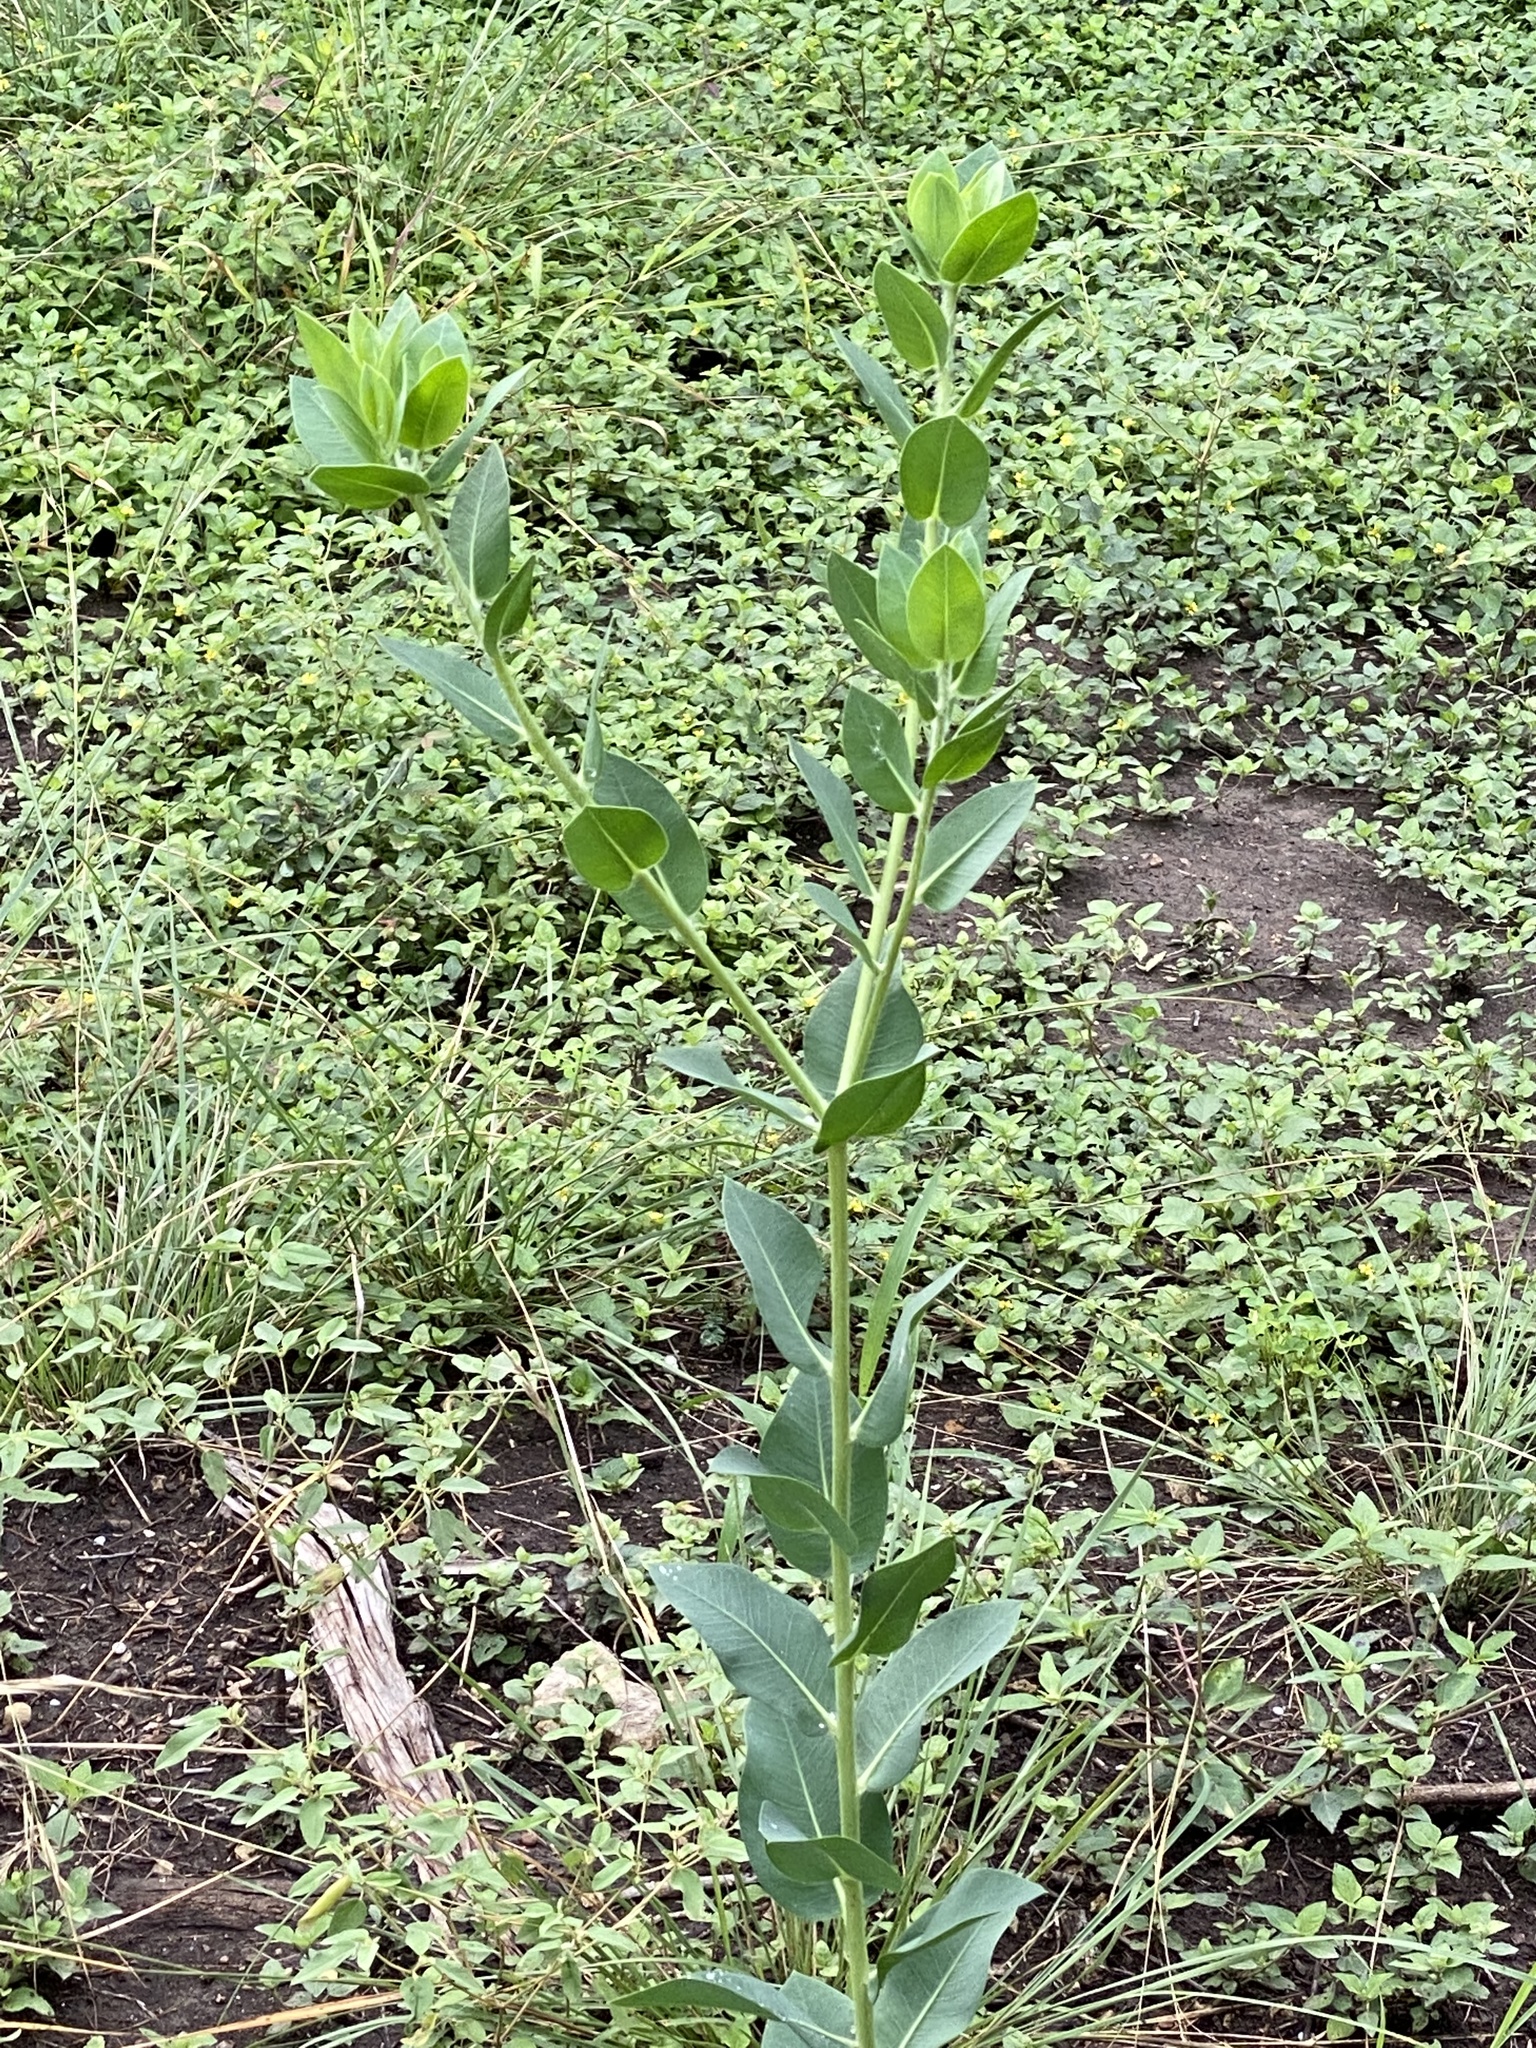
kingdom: Plantae
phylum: Tracheophyta
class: Magnoliopsida
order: Malpighiales
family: Euphorbiaceae
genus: Euphorbia
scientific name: Euphorbia marginata
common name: Ghostweed
